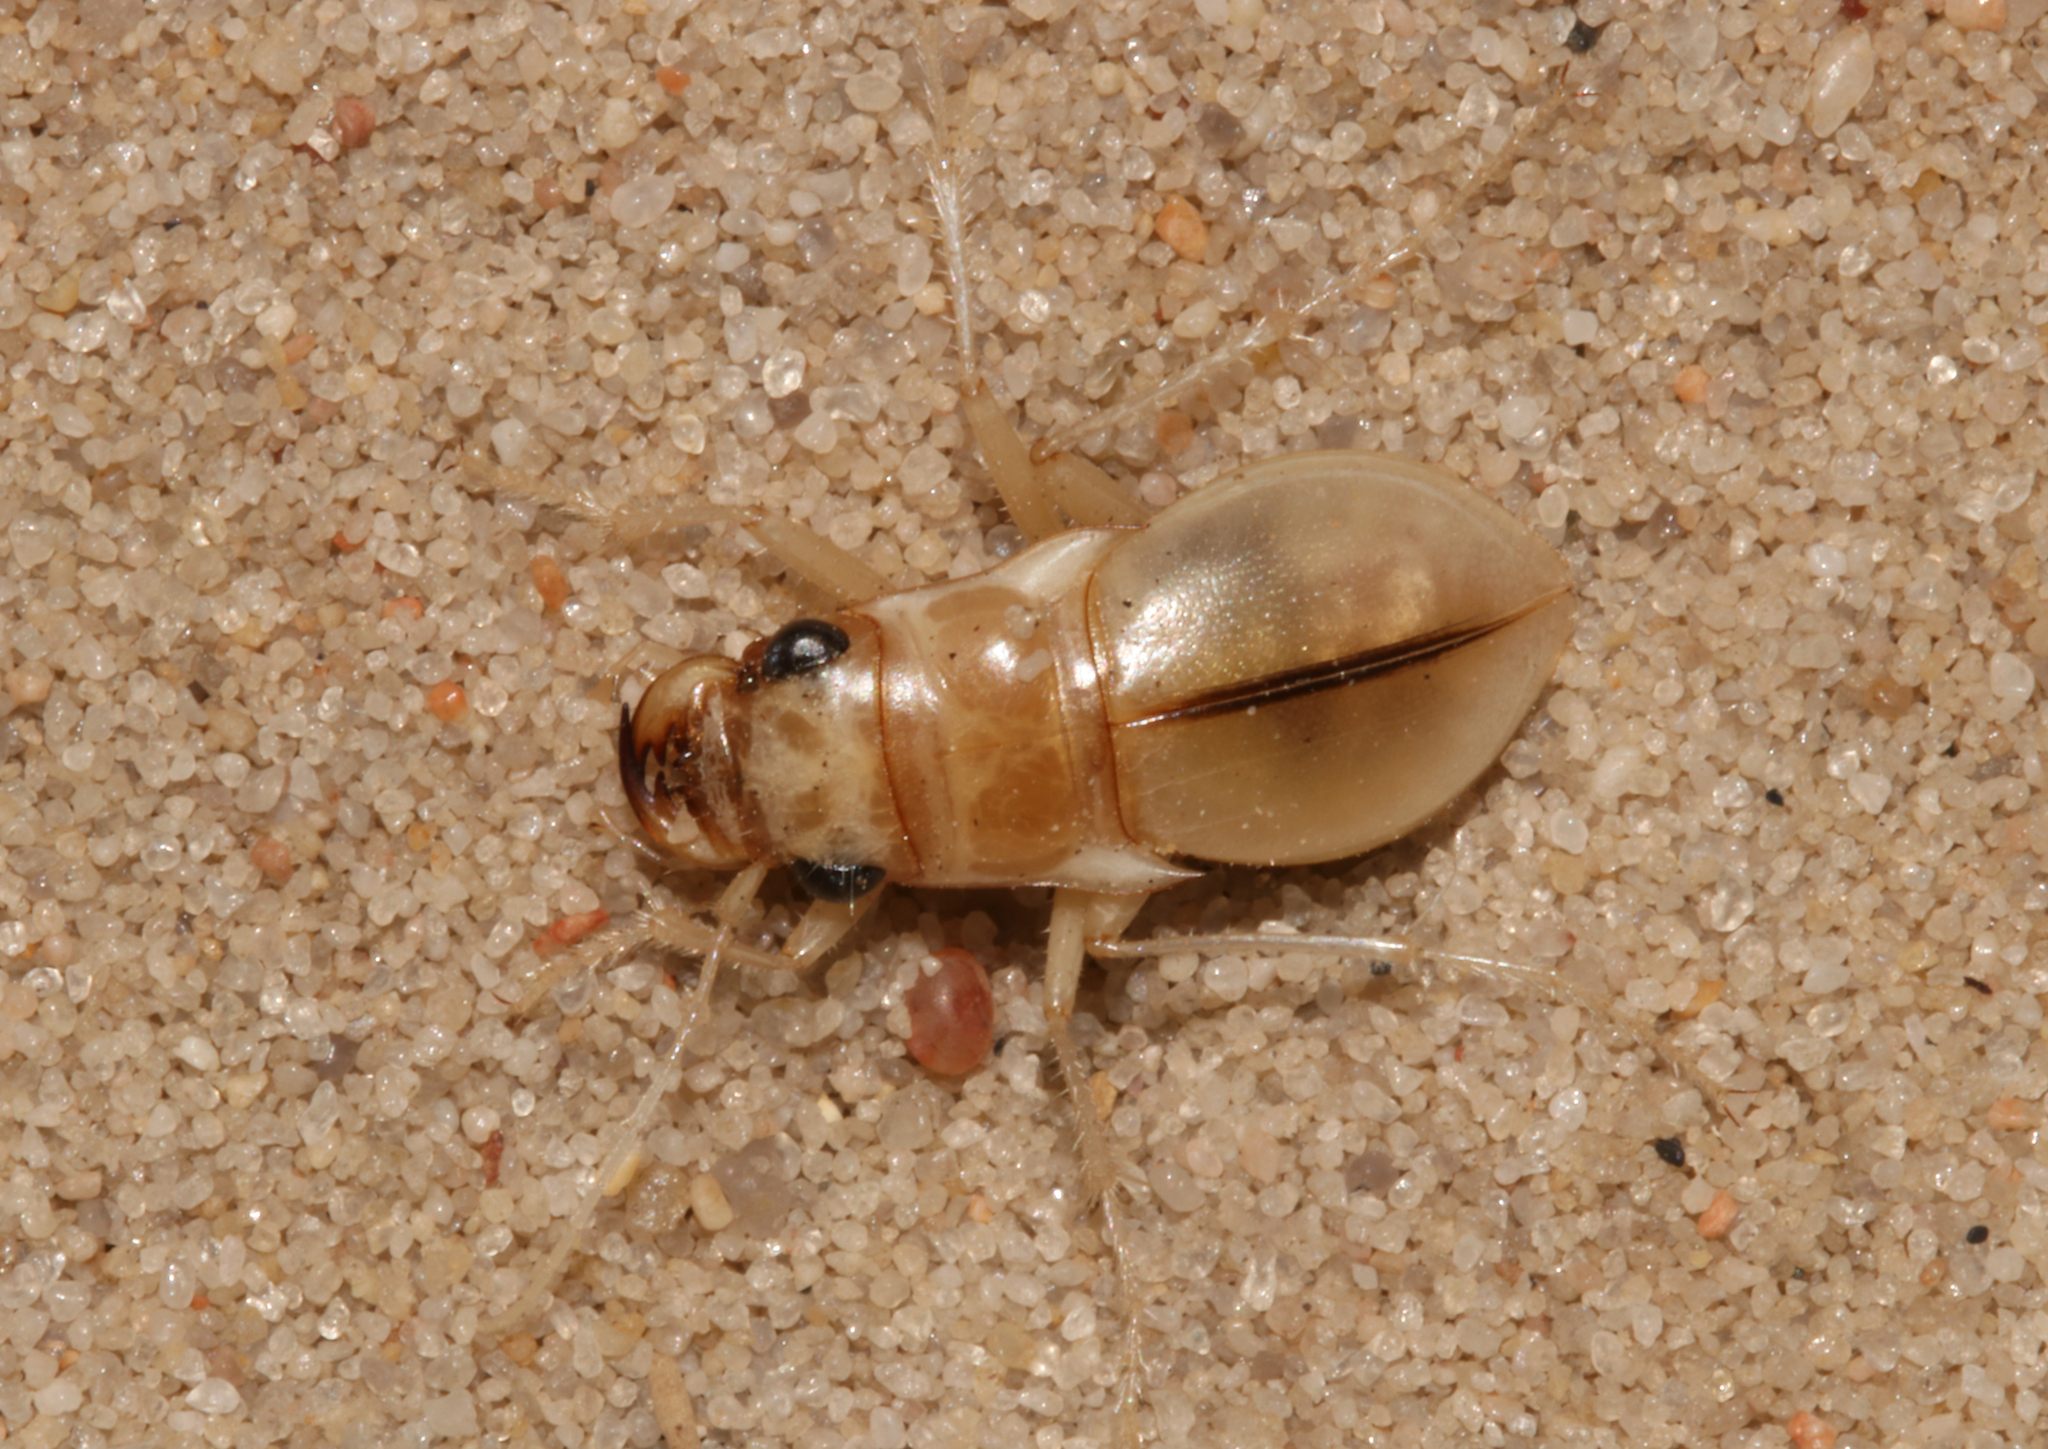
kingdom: Animalia
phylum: Arthropoda
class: Insecta
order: Coleoptera
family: Carabidae
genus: Platychile
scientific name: Platychile pallida
